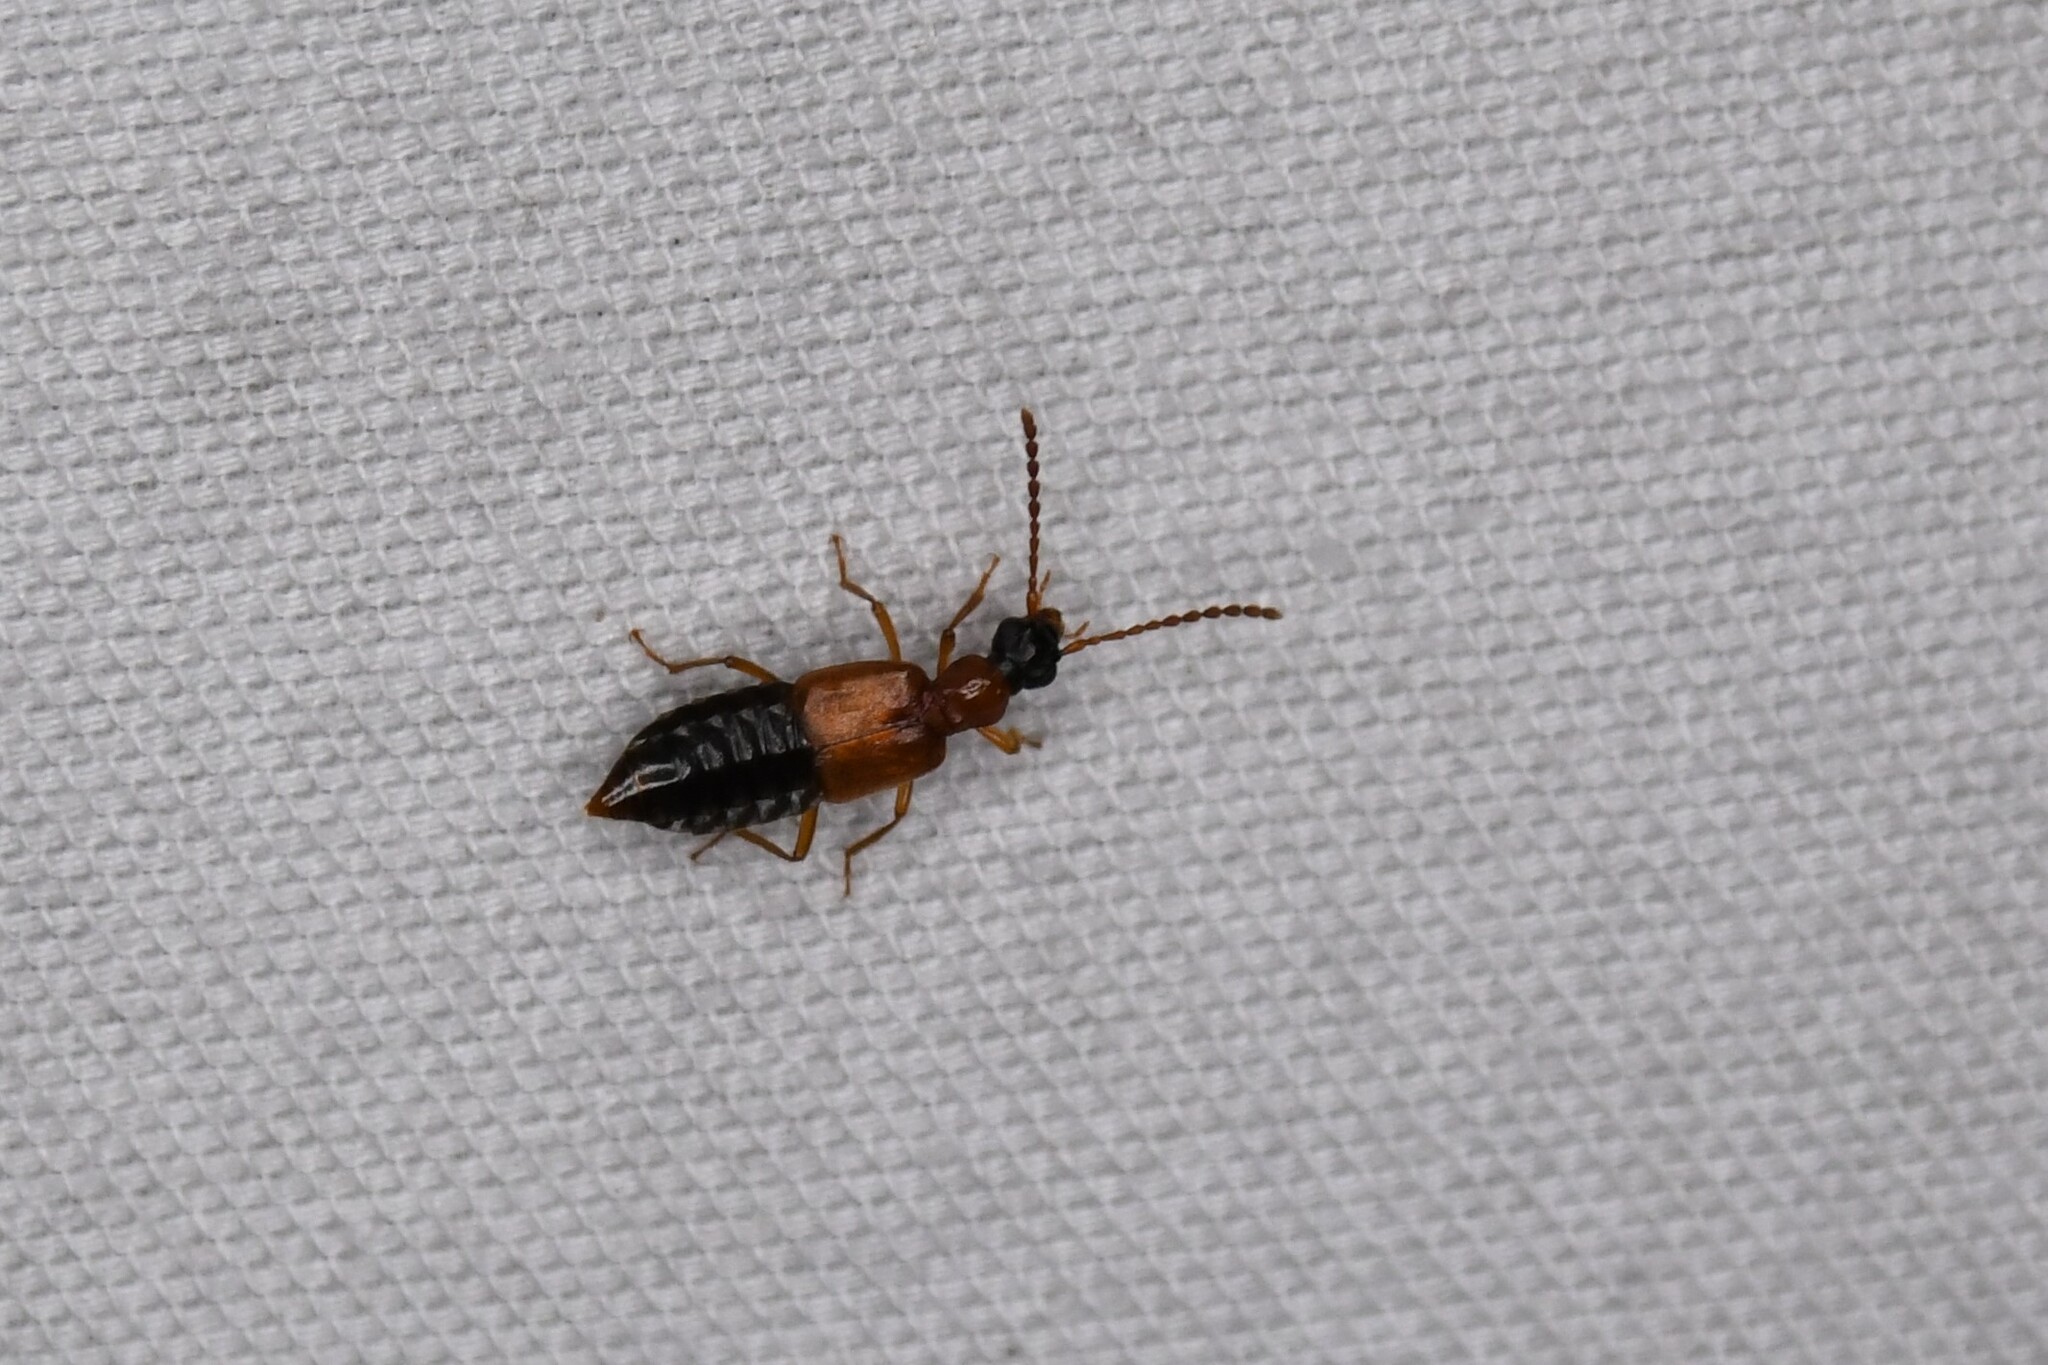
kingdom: Animalia
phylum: Arthropoda
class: Insecta
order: Coleoptera
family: Staphylinidae
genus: Deleaster
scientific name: Deleaster dichrous
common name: Rove beetle
